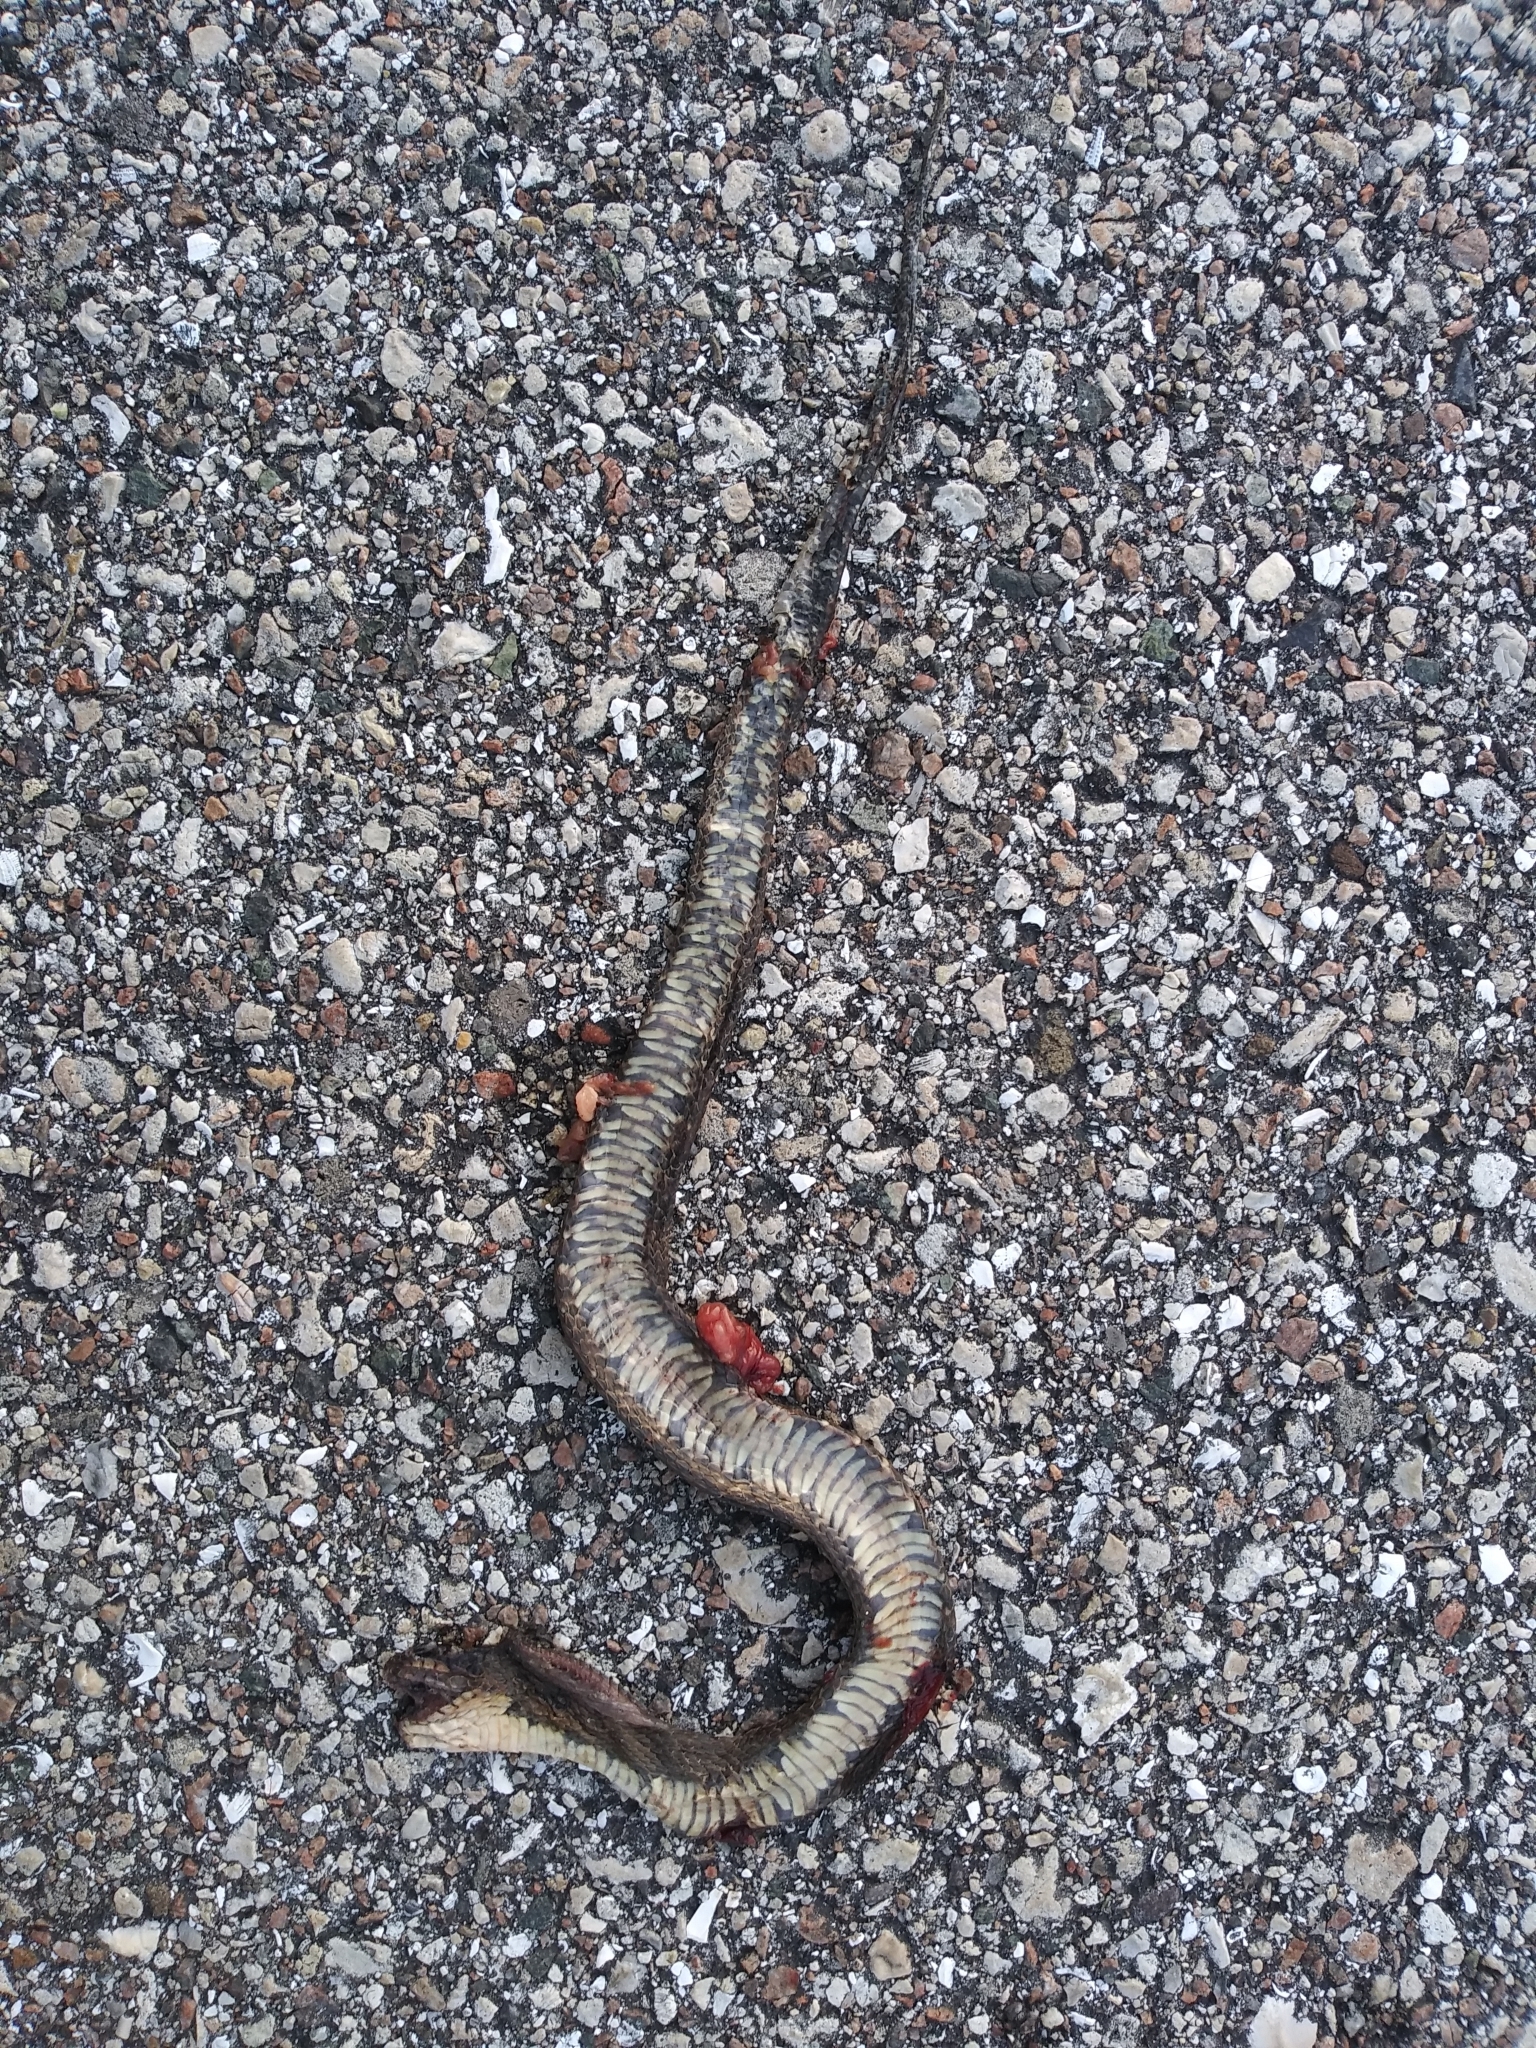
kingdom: Animalia
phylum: Chordata
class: Squamata
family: Colubridae
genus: Nerodia
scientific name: Nerodia fasciata
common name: Southern water snake
